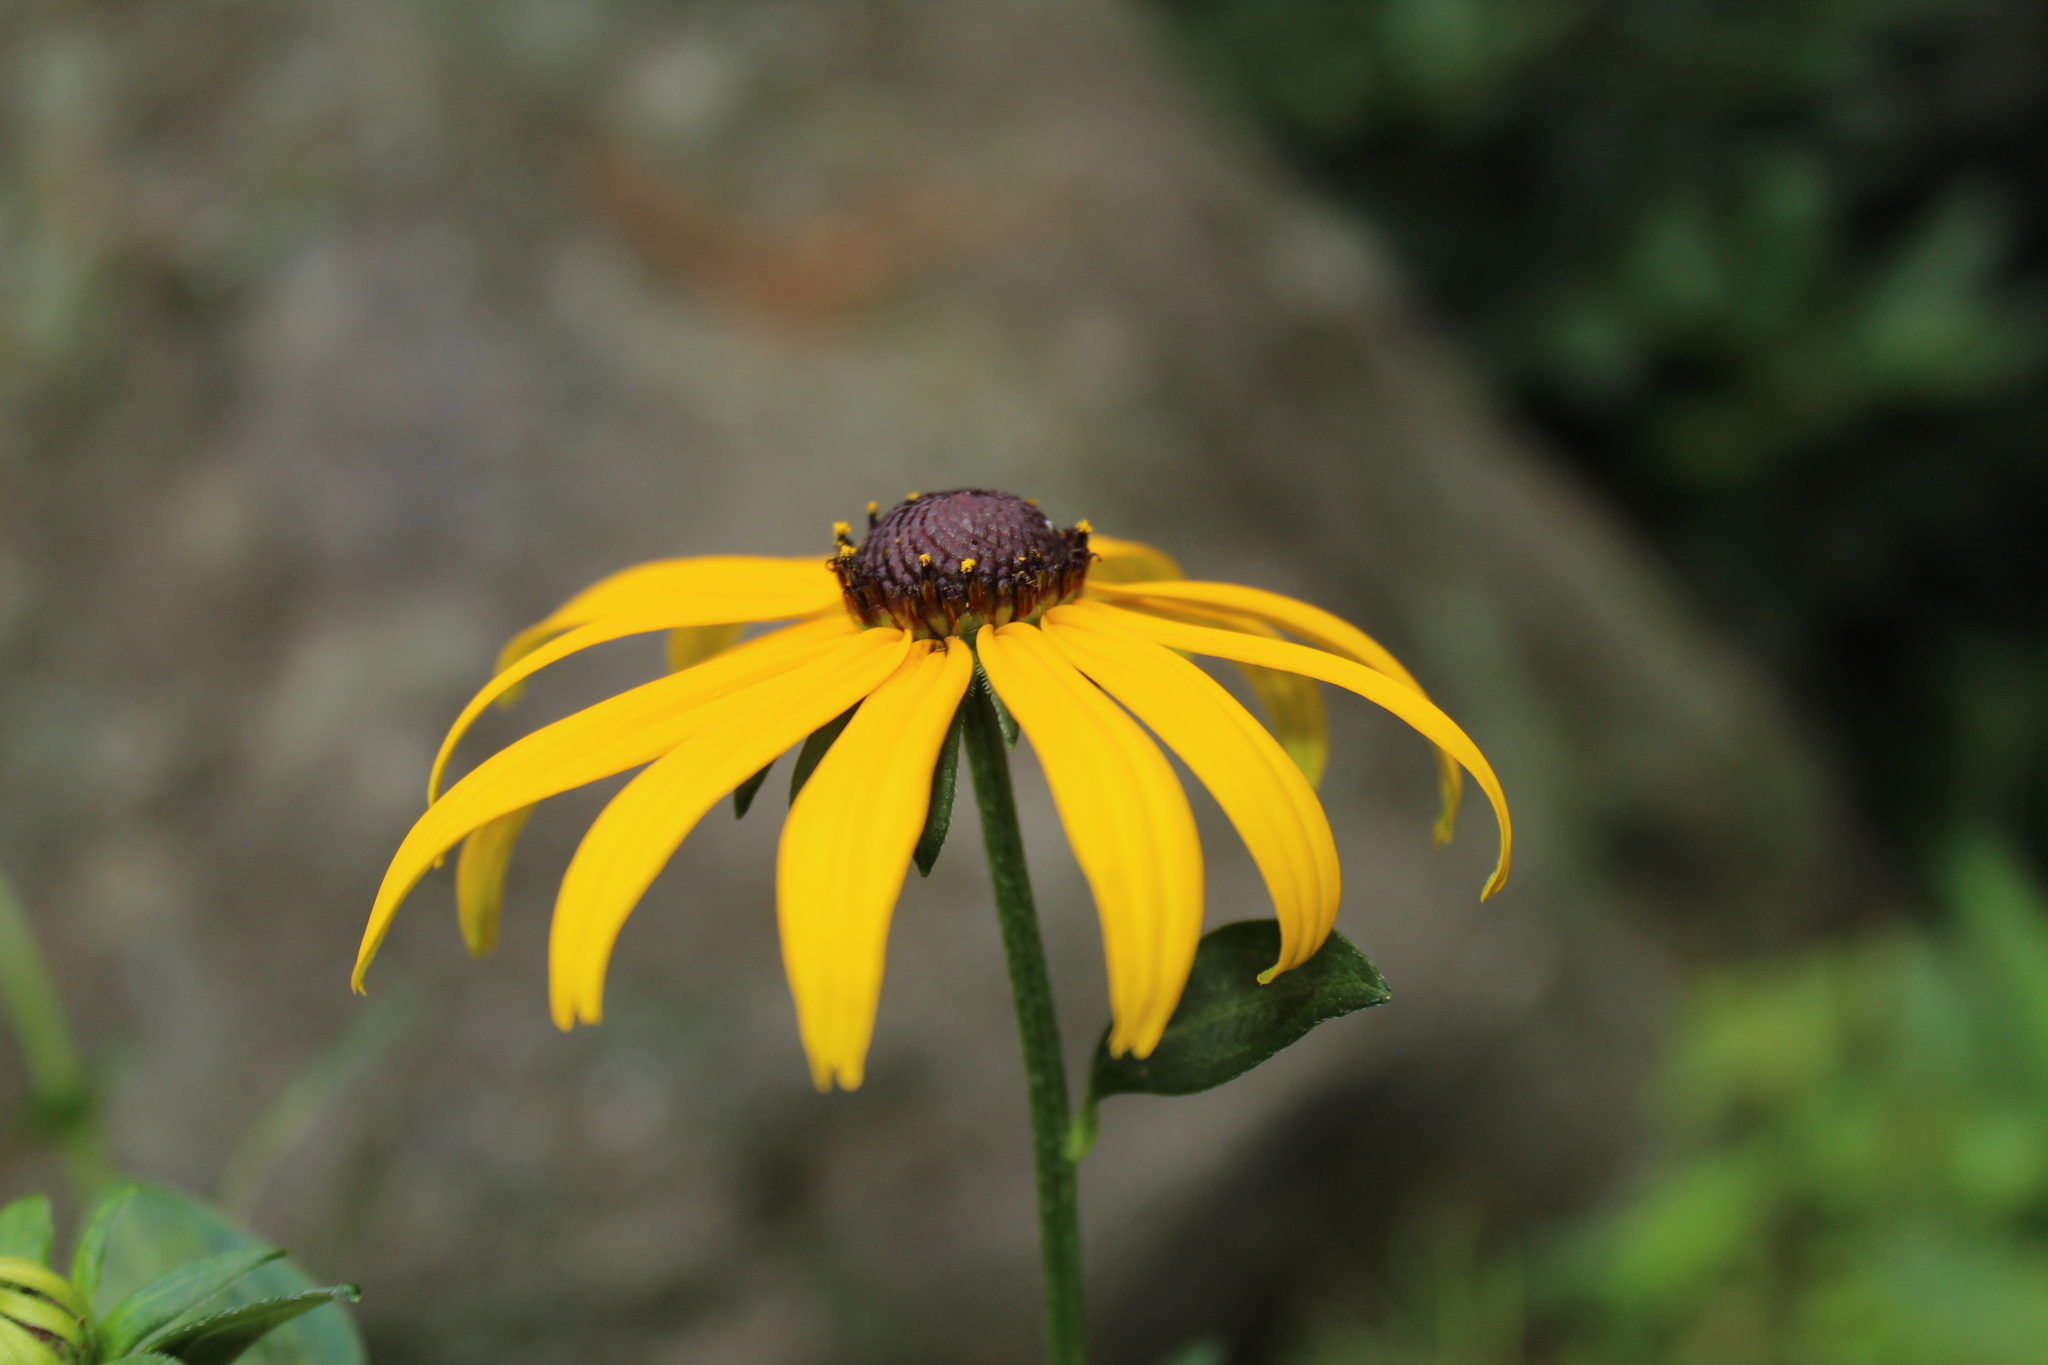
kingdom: Plantae
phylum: Tracheophyta
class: Magnoliopsida
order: Asterales
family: Asteraceae
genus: Rudbeckia
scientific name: Rudbeckia speciosa
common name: Showy coneflower
